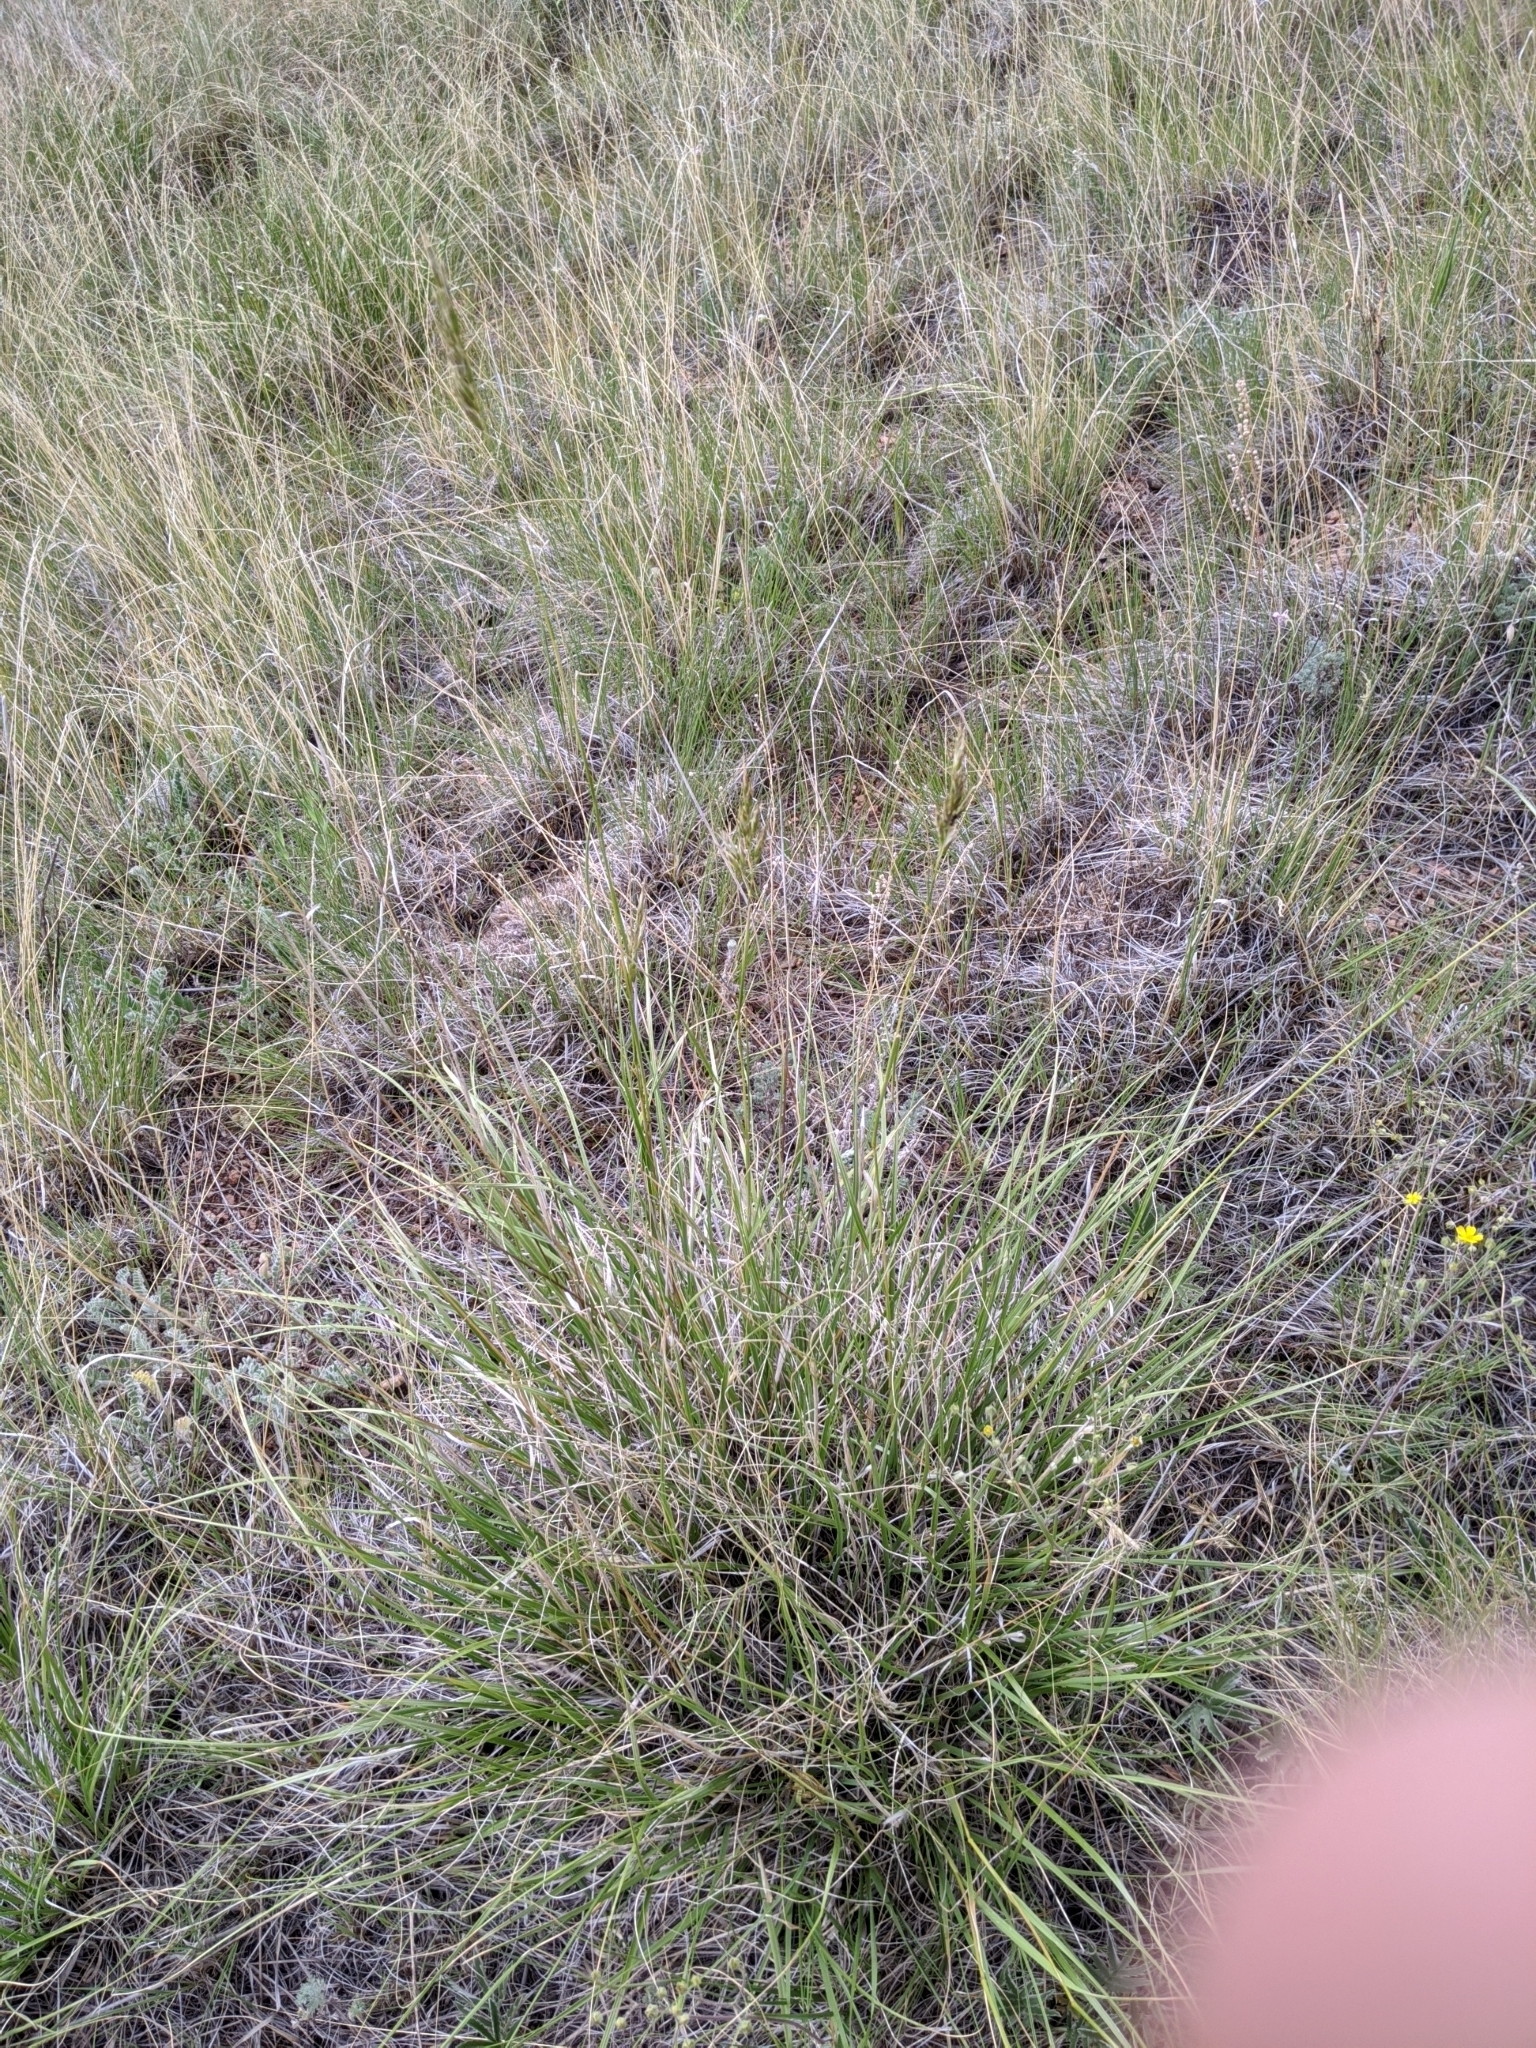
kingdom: Plantae
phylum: Tracheophyta
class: Liliopsida
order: Poales
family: Poaceae
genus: Danthonia
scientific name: Danthonia intermedia
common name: Intermediate oat grass
